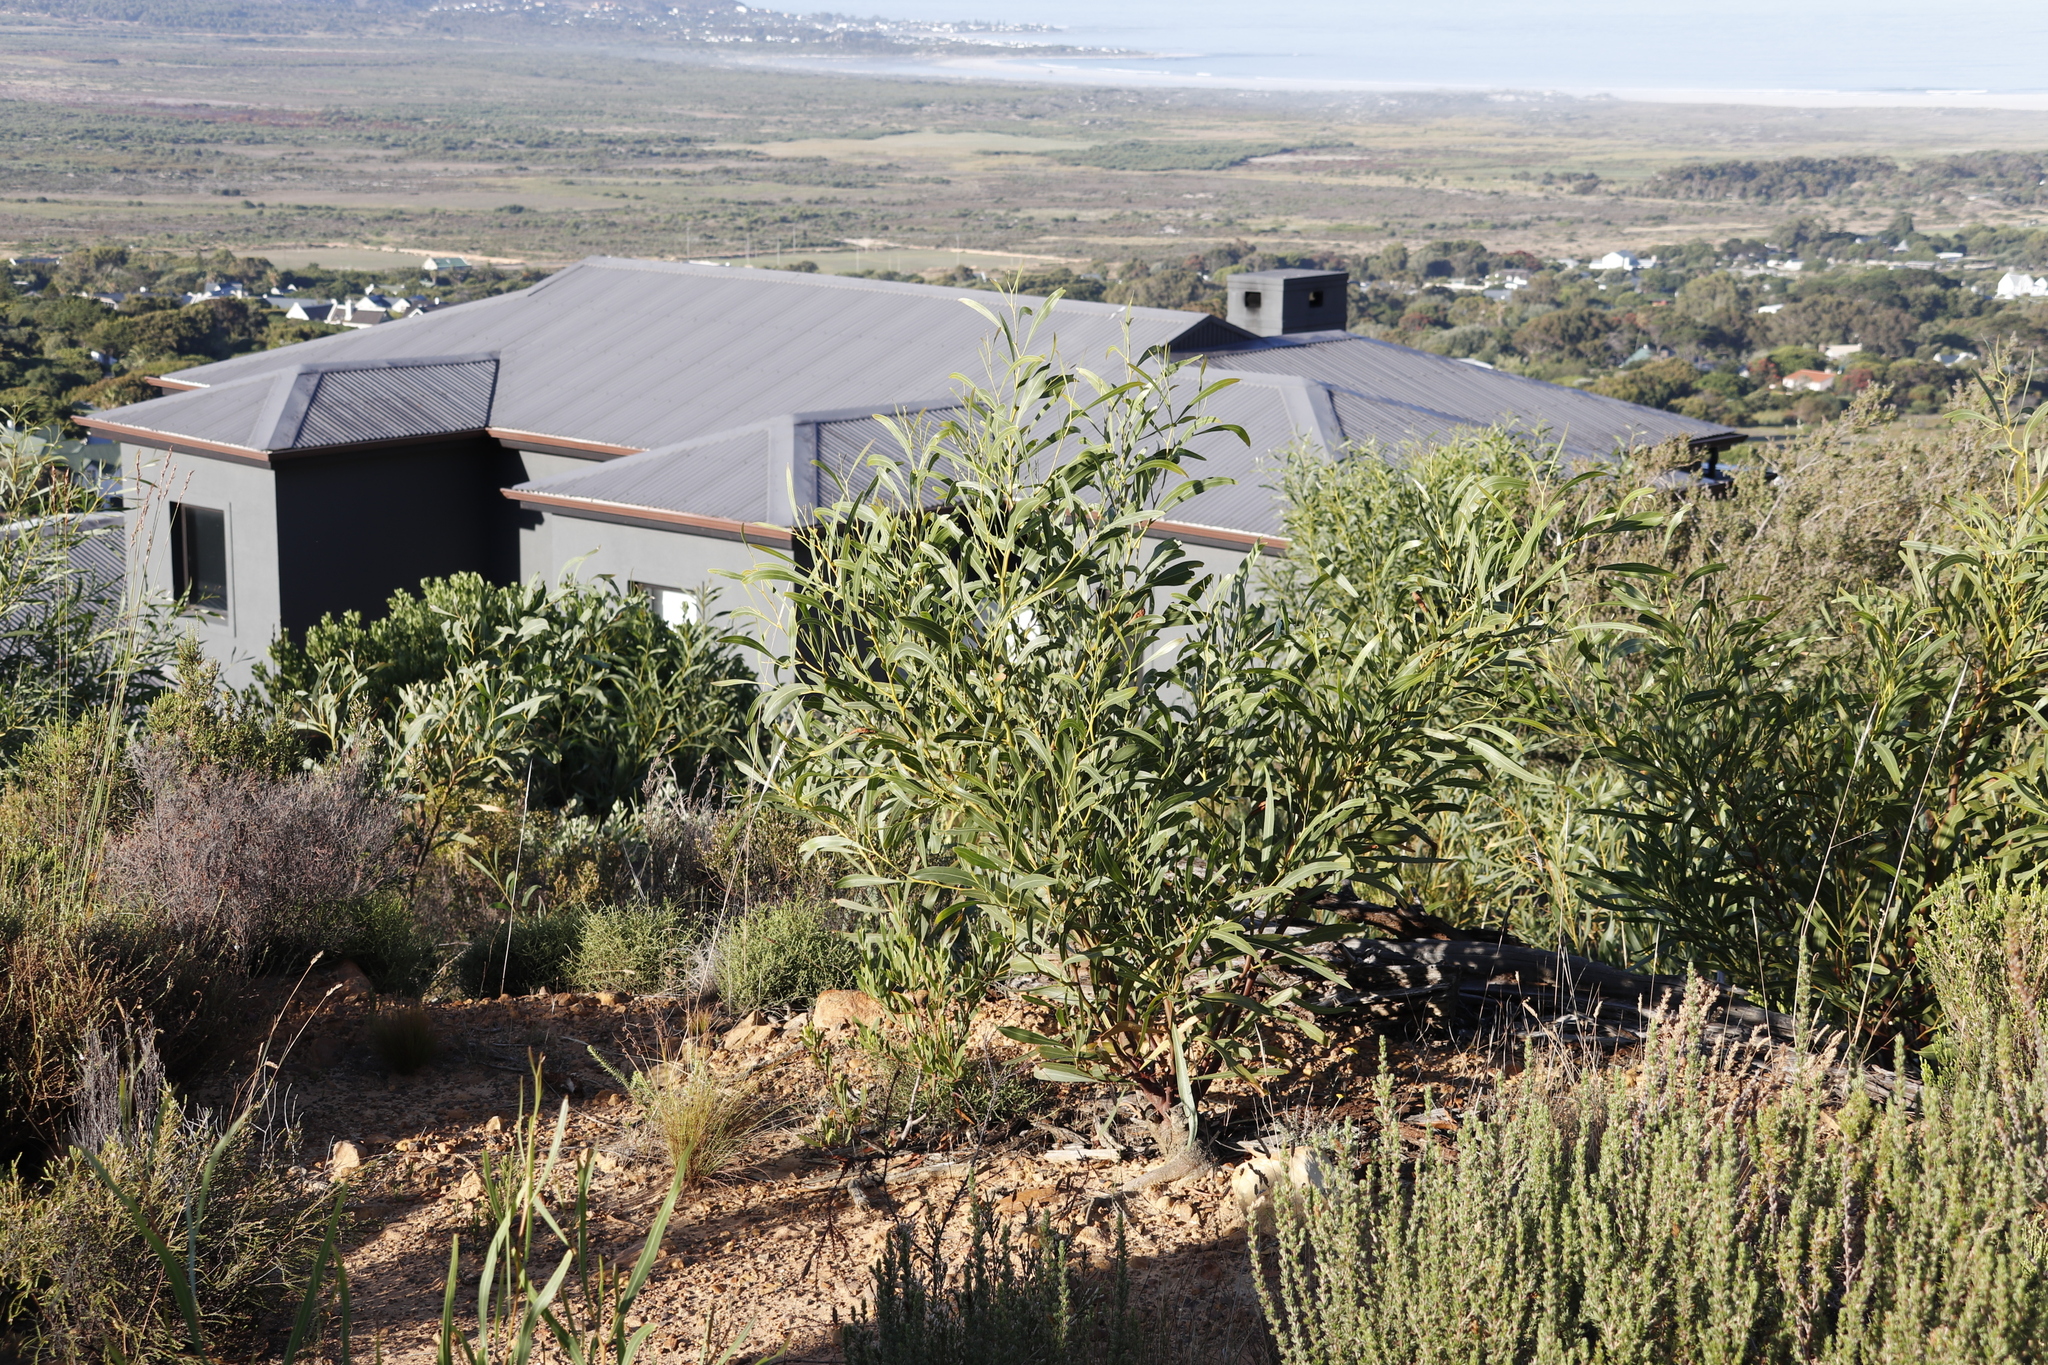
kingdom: Plantae
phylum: Tracheophyta
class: Magnoliopsida
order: Fabales
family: Fabaceae
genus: Acacia
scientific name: Acacia saligna
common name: Orange wattle
